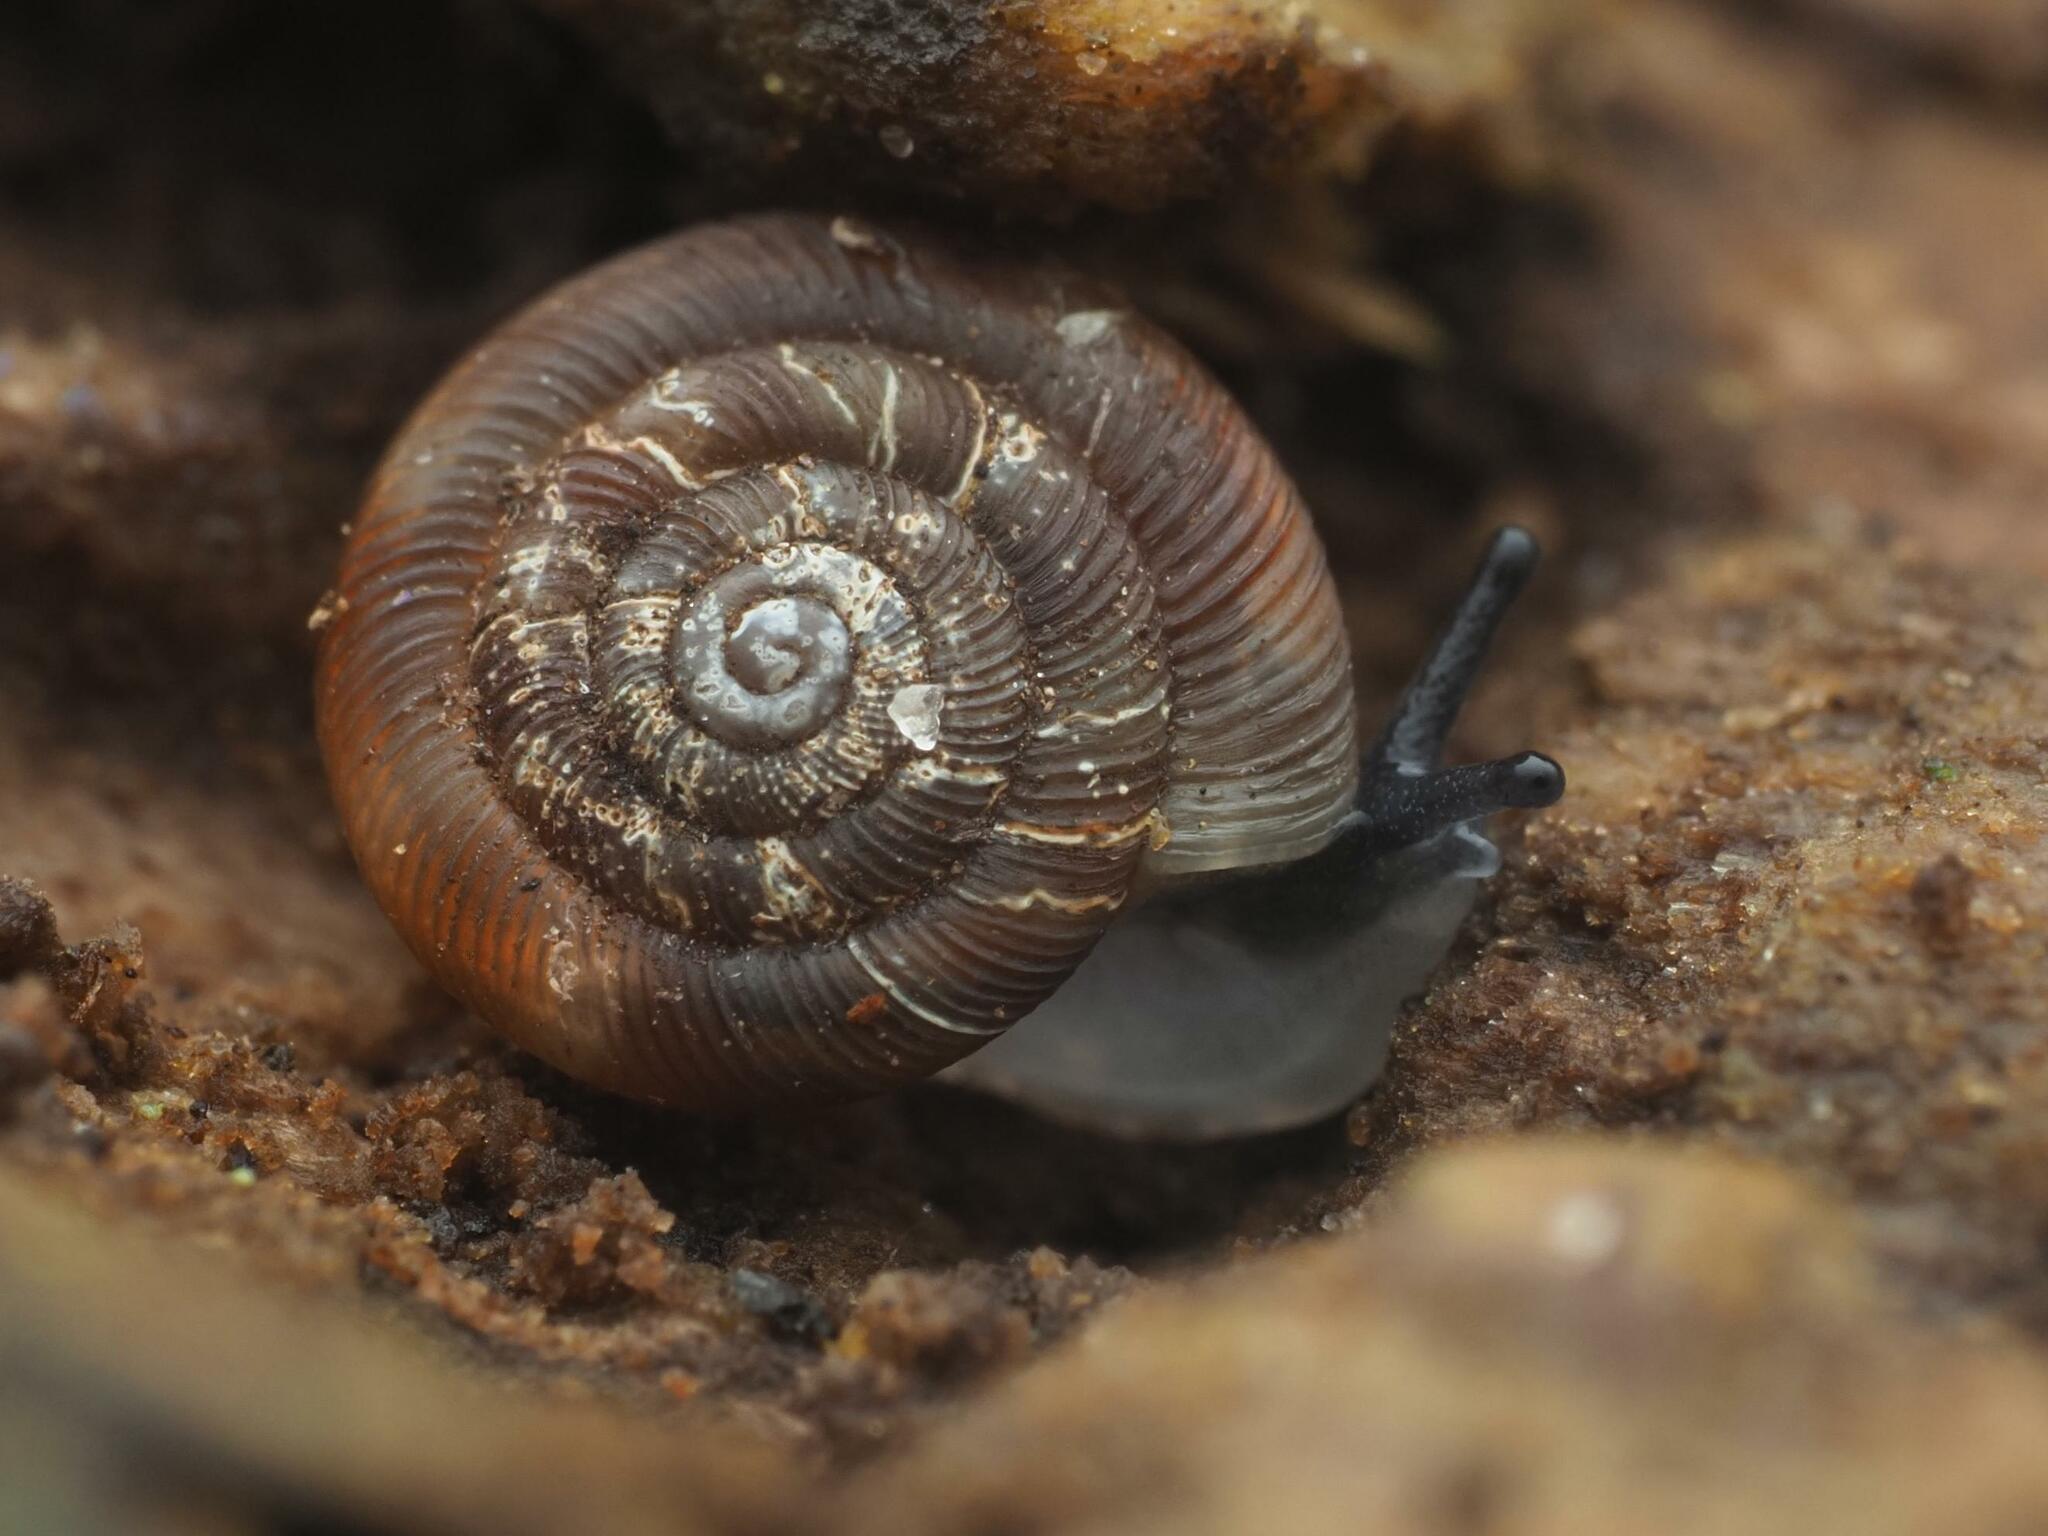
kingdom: Animalia
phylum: Mollusca
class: Gastropoda
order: Stylommatophora
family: Discidae
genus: Discus
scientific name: Discus rotundatus
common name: Rounded snail
